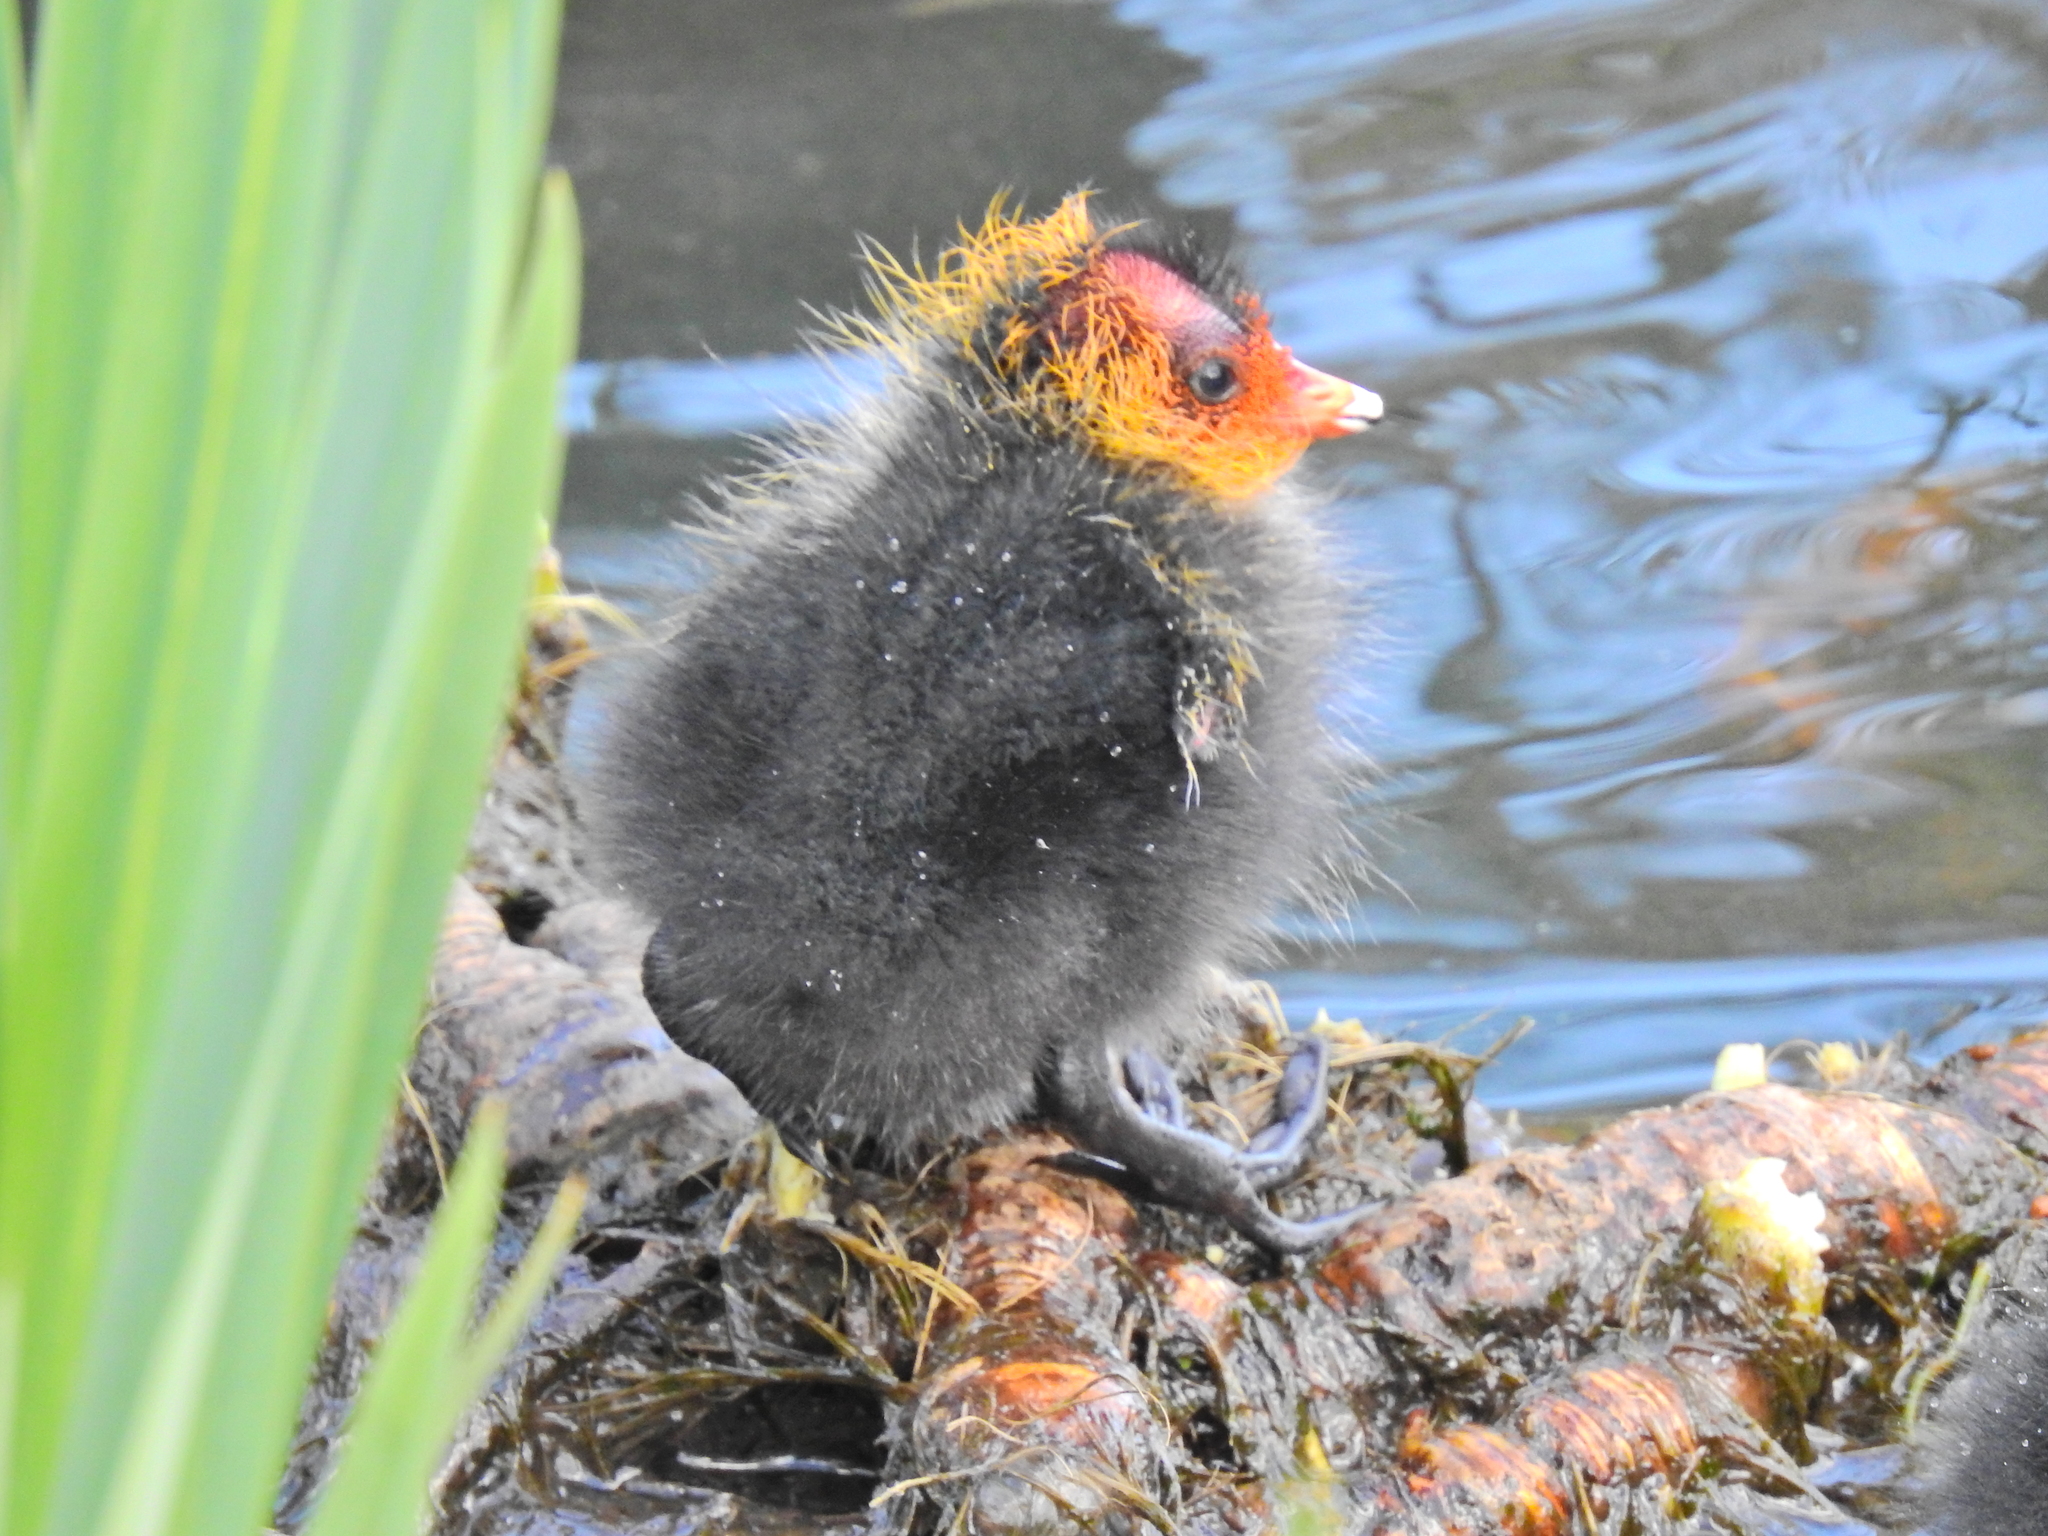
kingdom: Animalia
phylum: Chordata
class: Aves
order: Gruiformes
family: Rallidae
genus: Fulica
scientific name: Fulica atra
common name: Eurasian coot
